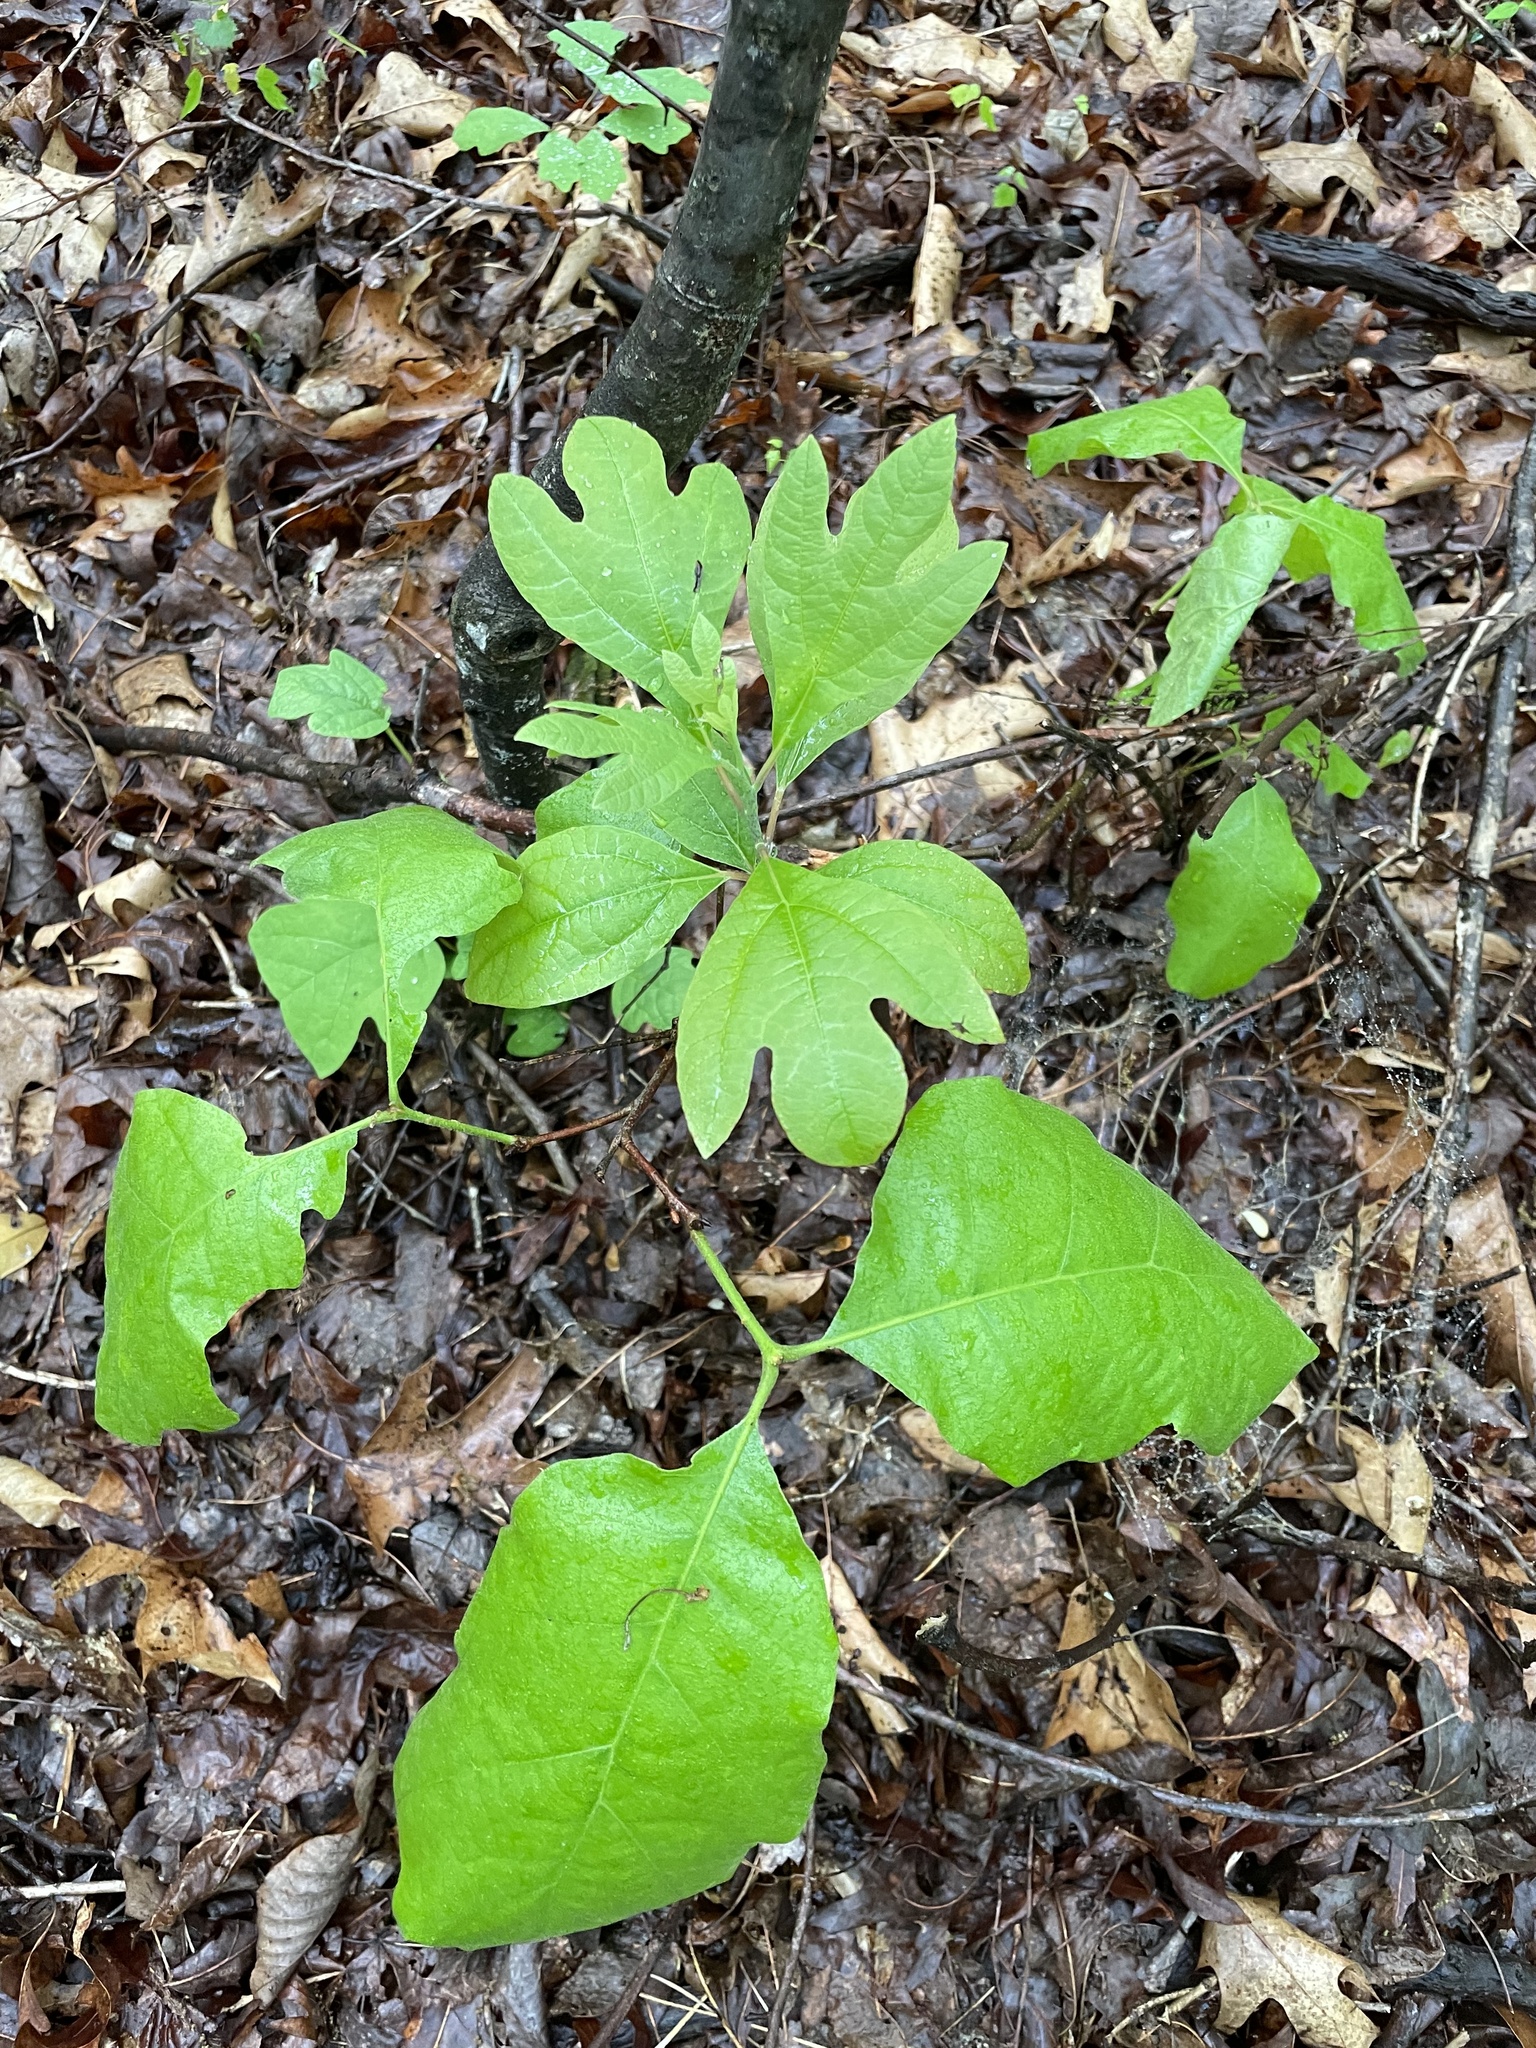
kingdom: Plantae
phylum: Tracheophyta
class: Magnoliopsida
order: Laurales
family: Lauraceae
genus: Sassafras
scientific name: Sassafras albidum
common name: Sassafras
